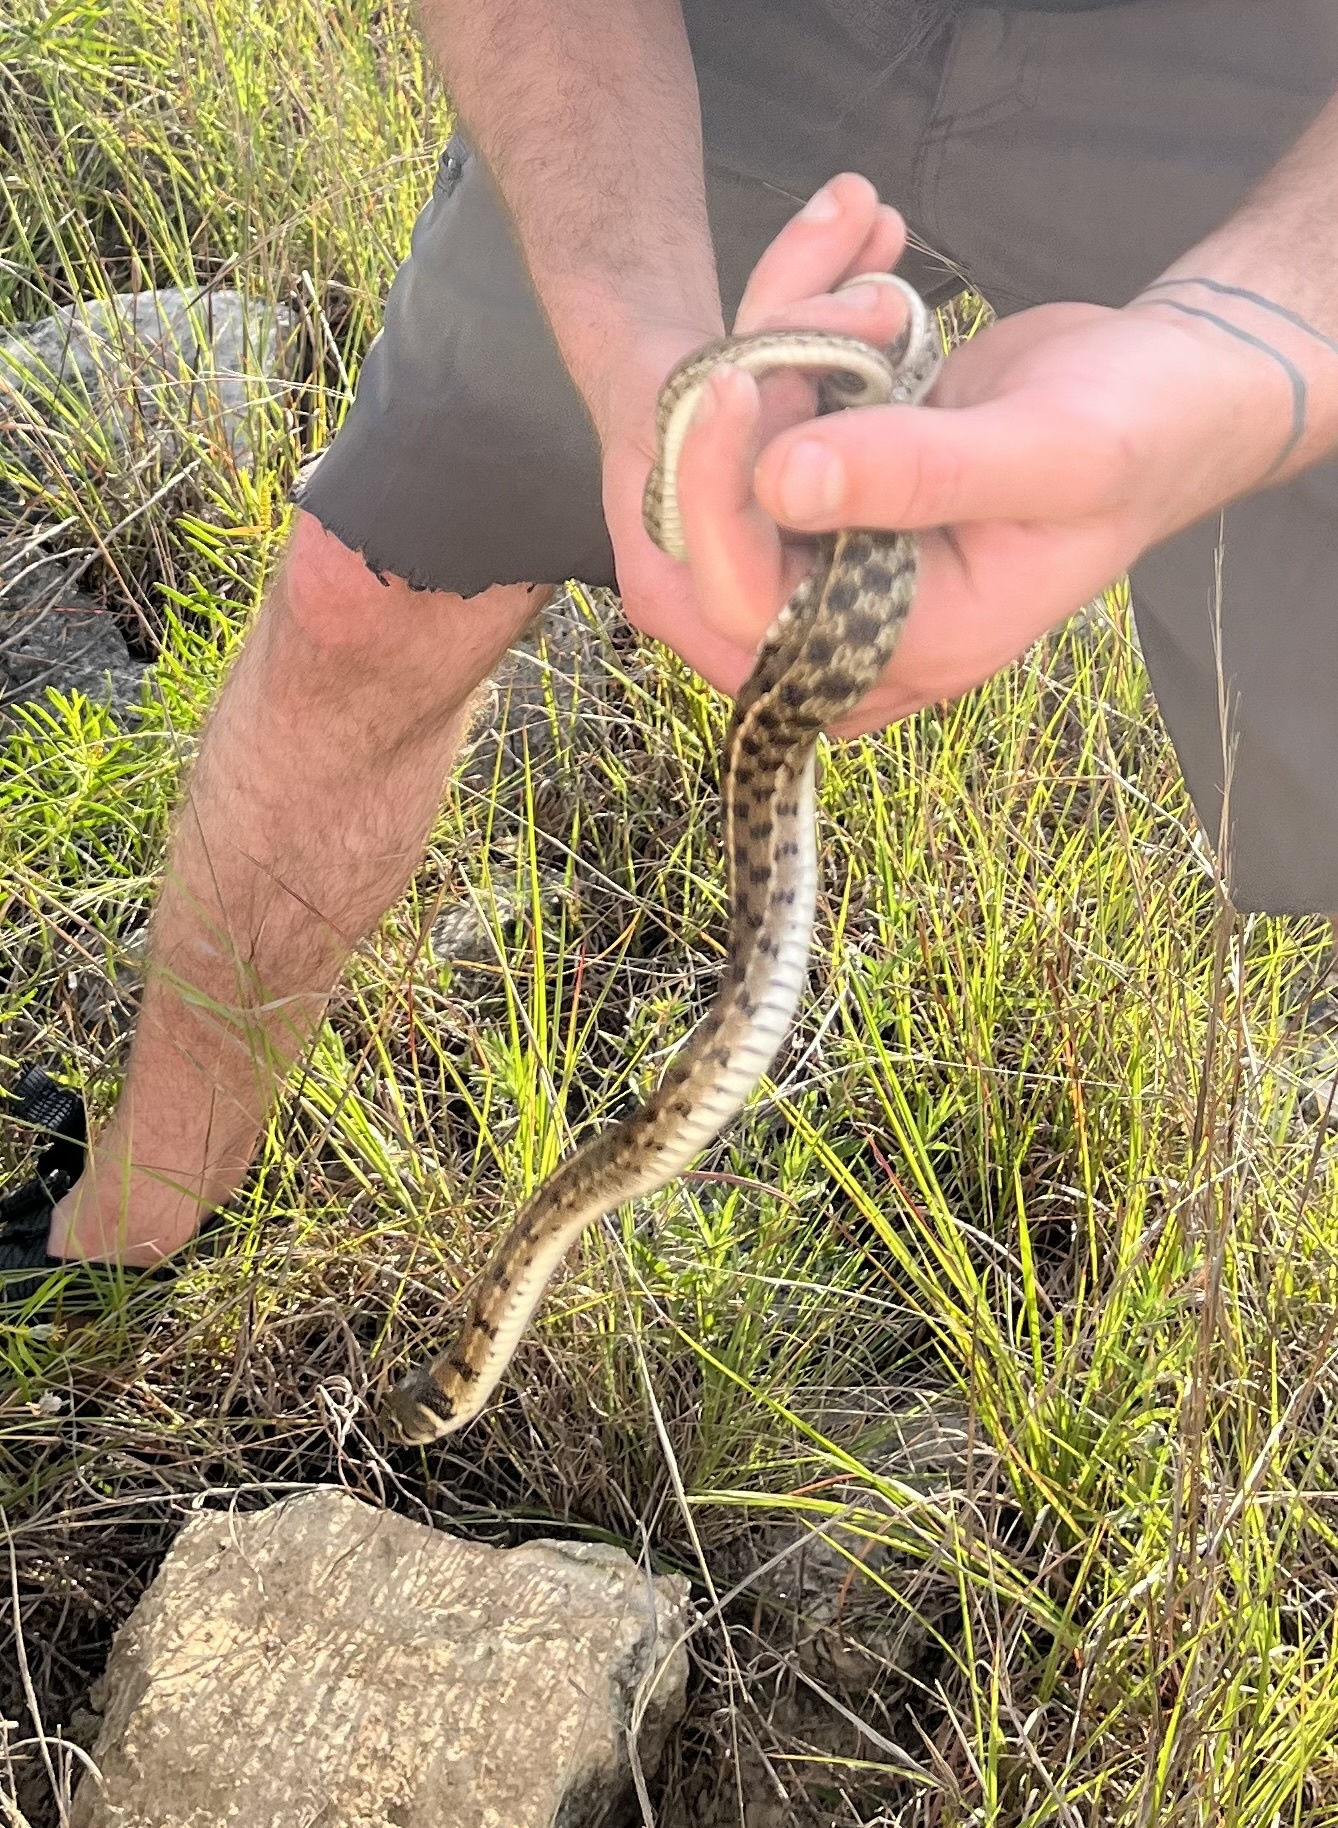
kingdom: Animalia
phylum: Chordata
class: Squamata
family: Colubridae
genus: Thamnophis
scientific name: Thamnophis marcianus
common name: Checkered garter snake
